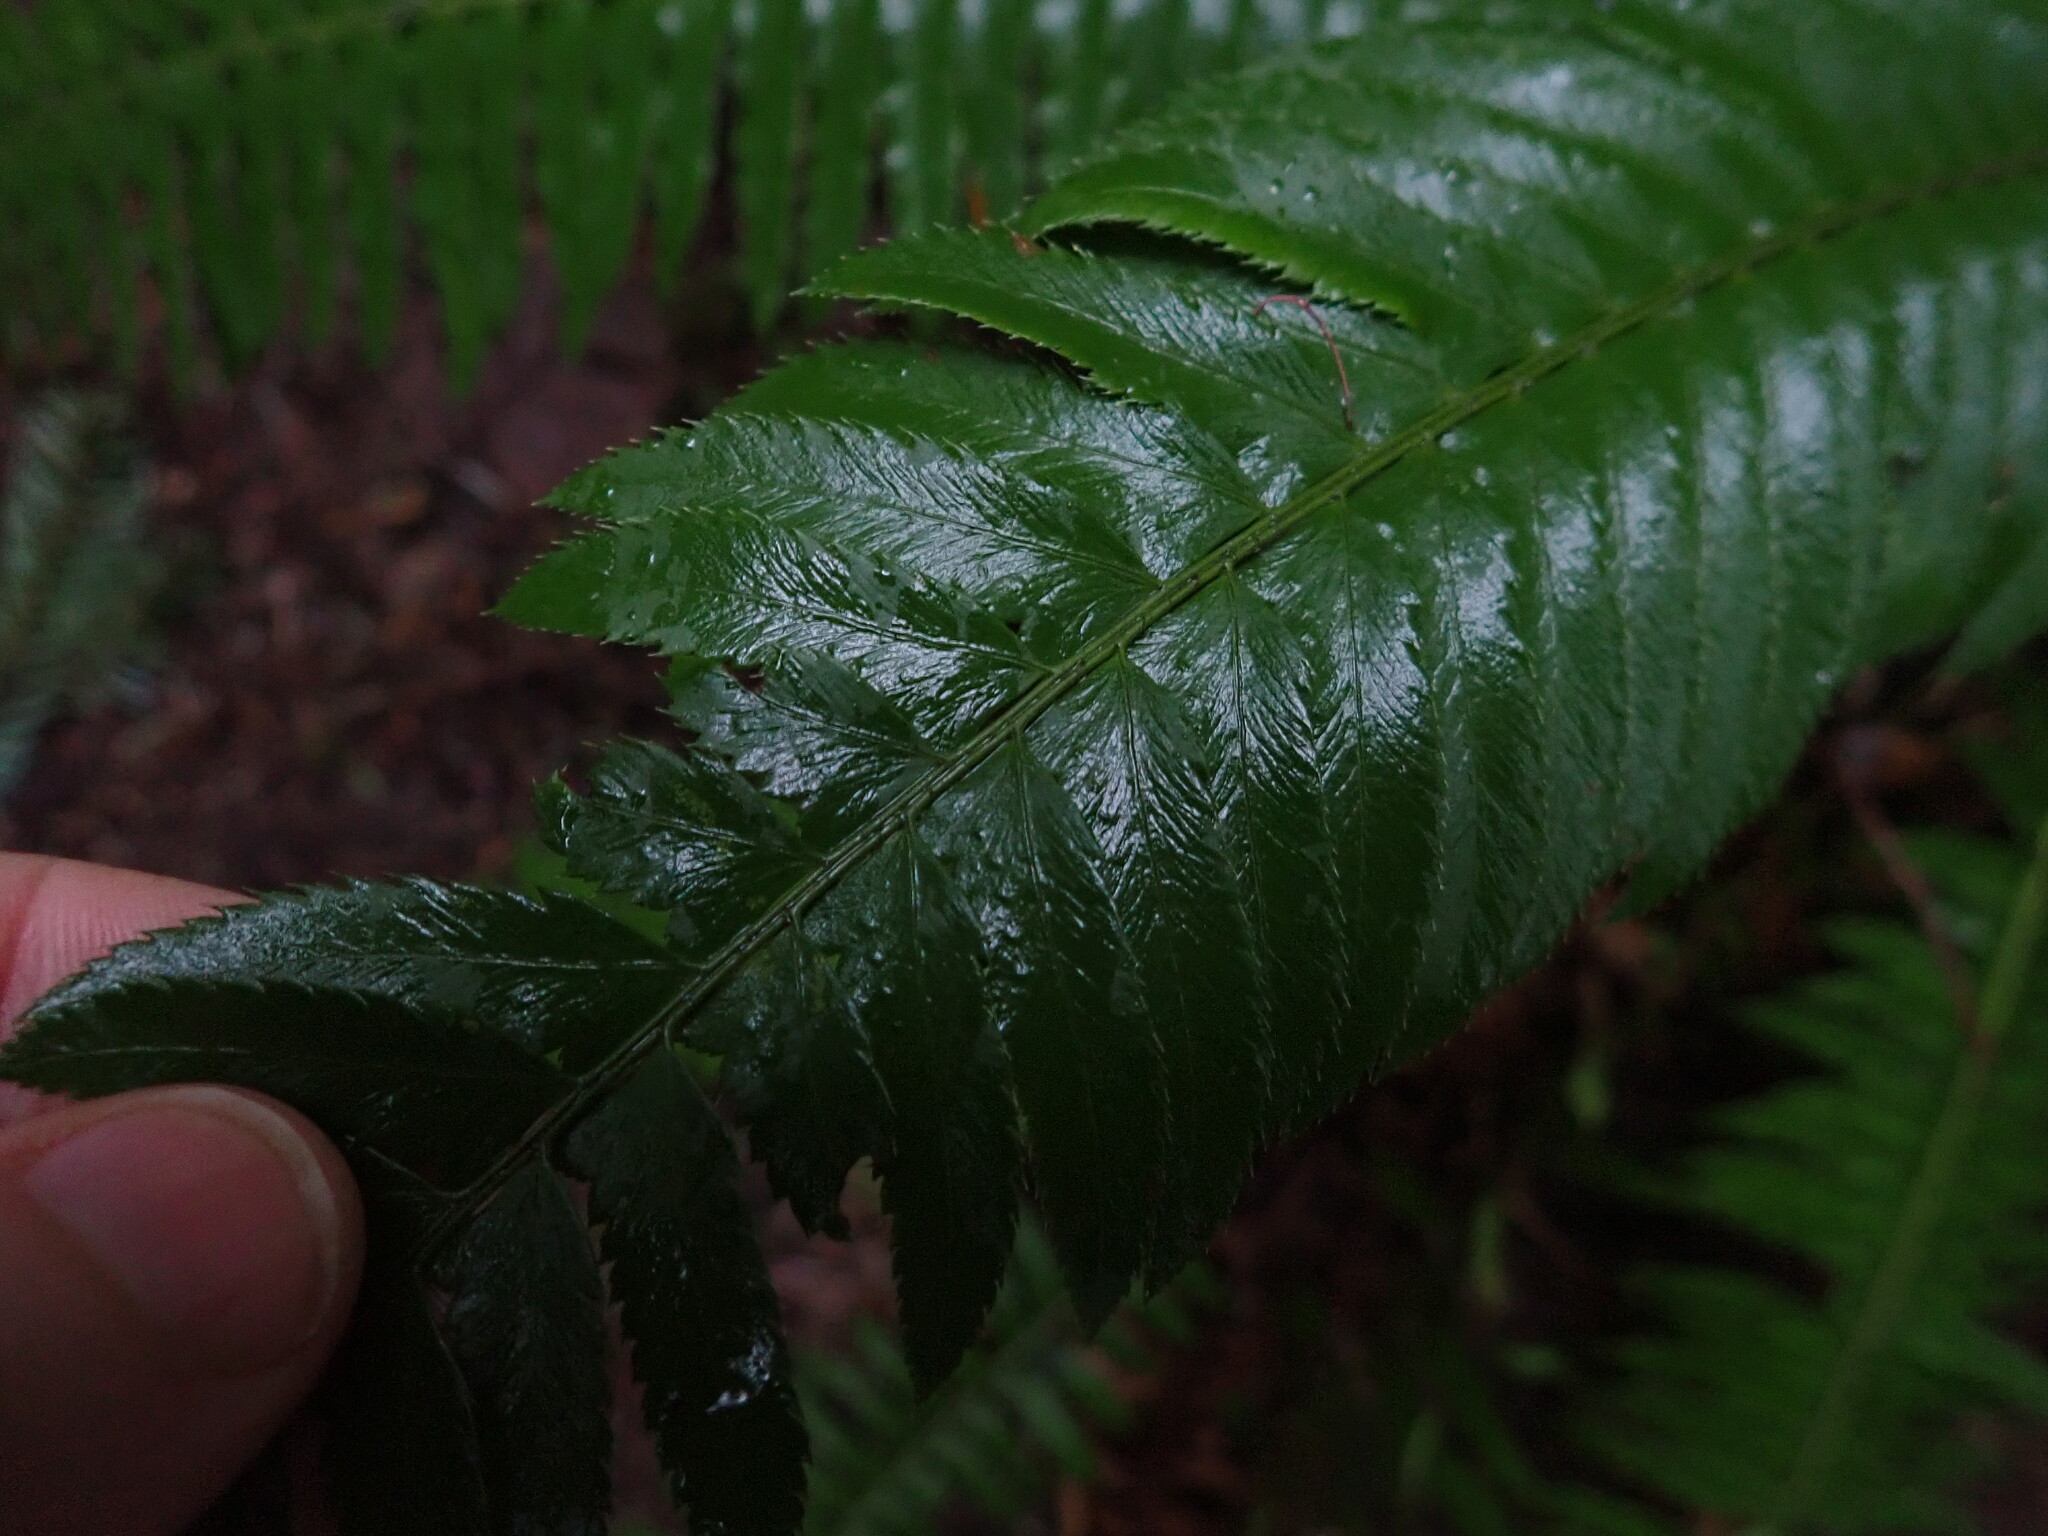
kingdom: Plantae
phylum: Tracheophyta
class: Polypodiopsida
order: Polypodiales
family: Dryopteridaceae
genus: Polystichum
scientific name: Polystichum munitum
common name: Western sword-fern
